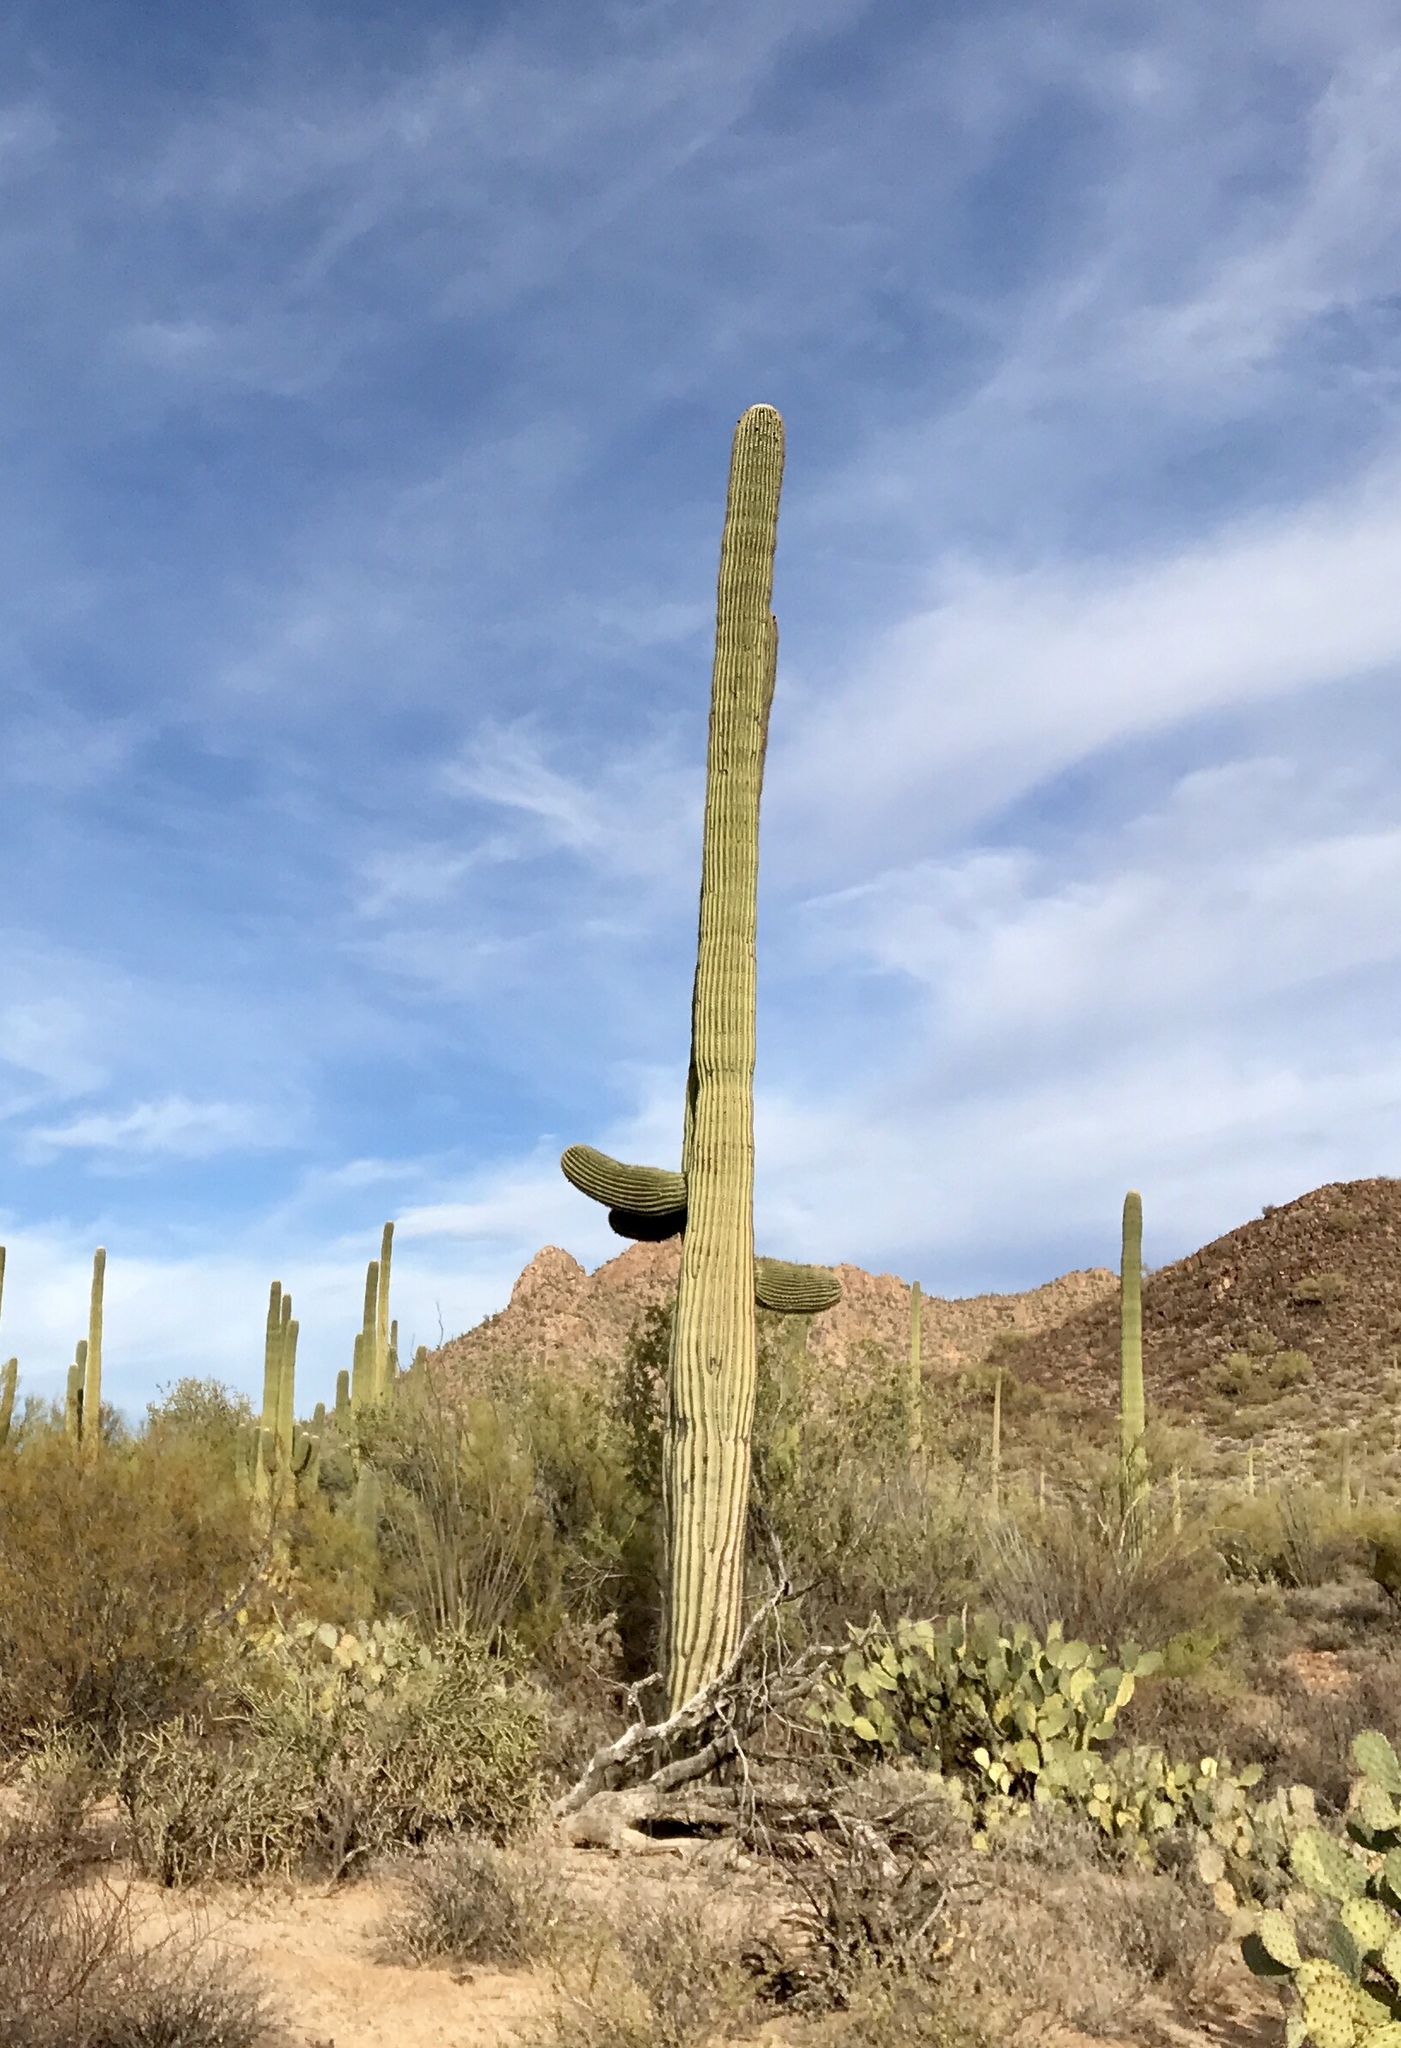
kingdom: Plantae
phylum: Tracheophyta
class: Magnoliopsida
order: Caryophyllales
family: Cactaceae
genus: Carnegiea
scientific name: Carnegiea gigantea
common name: Saguaro
